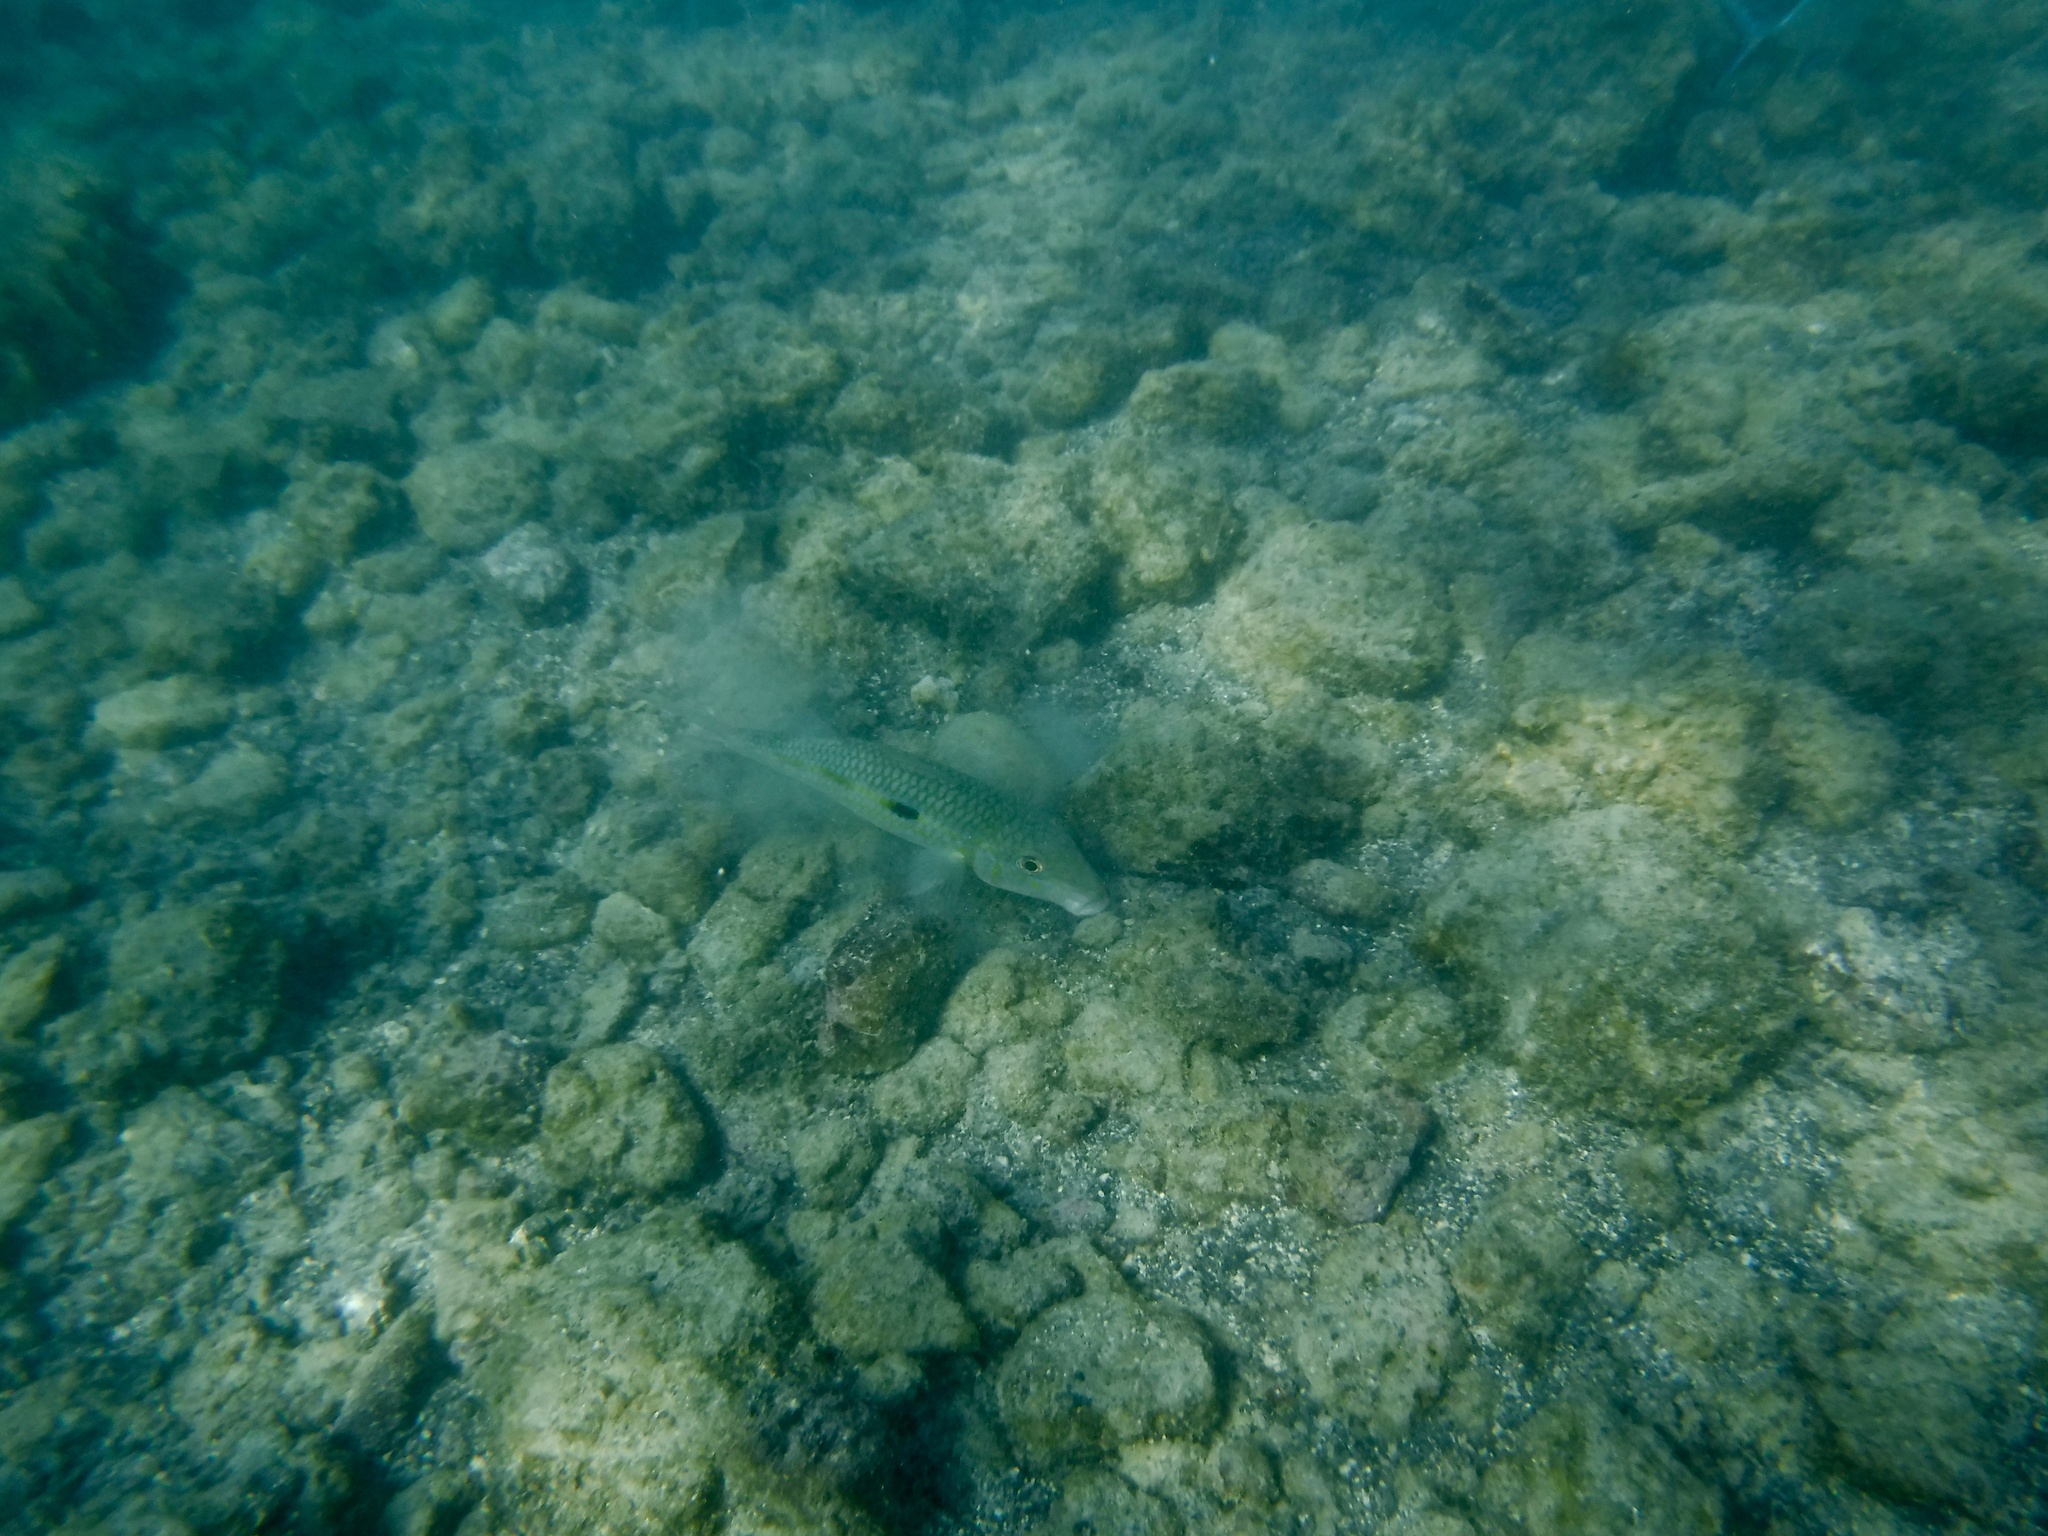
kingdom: Animalia
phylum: Chordata
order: Perciformes
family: Mullidae
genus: Mulloidichthys
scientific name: Mulloidichthys flavolineatus
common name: Yellowstripe goatfish
